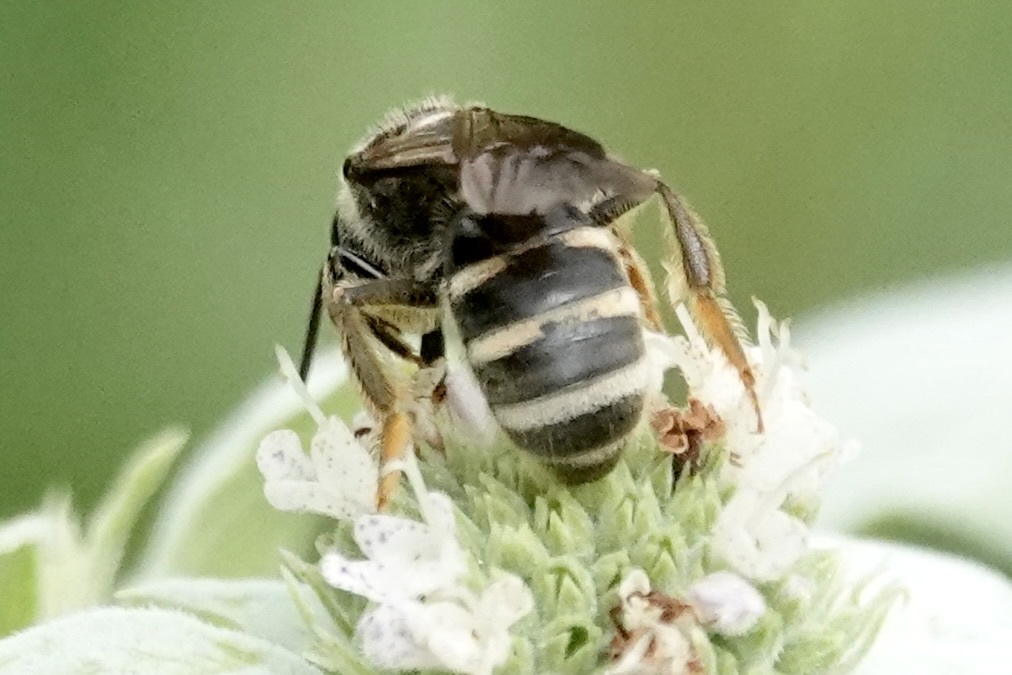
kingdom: Animalia
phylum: Arthropoda
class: Insecta
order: Hymenoptera
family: Halictidae
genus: Lasioglossum
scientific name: Lasioglossum fuscipenne
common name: Brown-winged sweat bee
